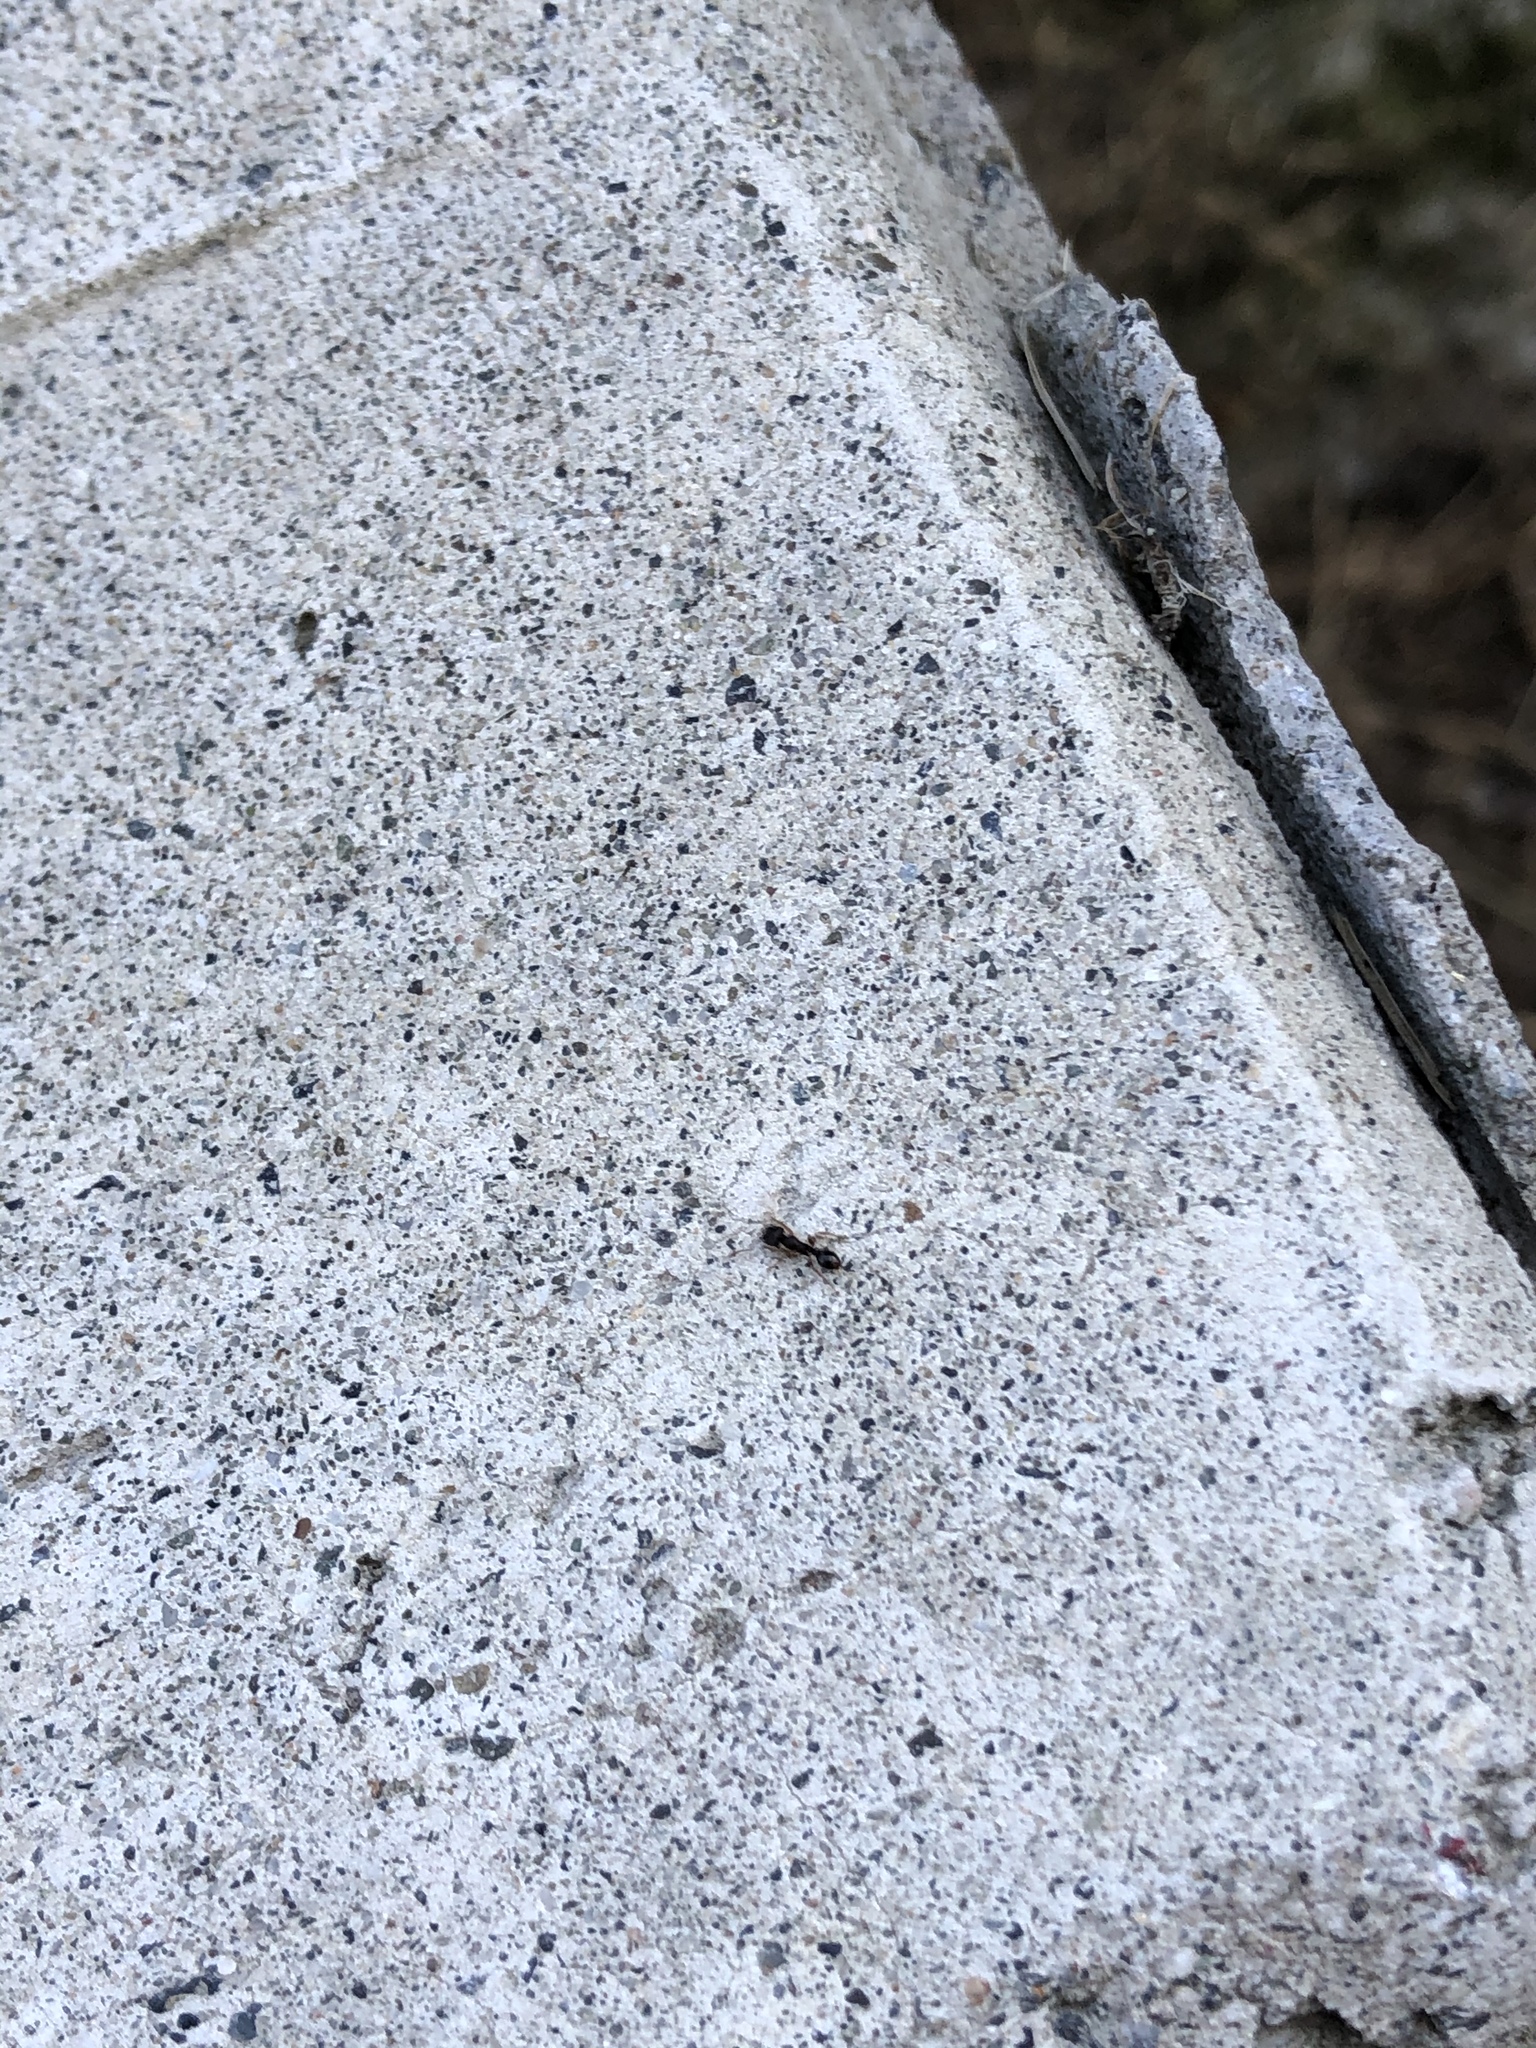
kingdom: Animalia
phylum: Arthropoda
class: Insecta
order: Hymenoptera
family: Formicidae
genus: Tetramorium
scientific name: Tetramorium immigrans
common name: Pavement ant
